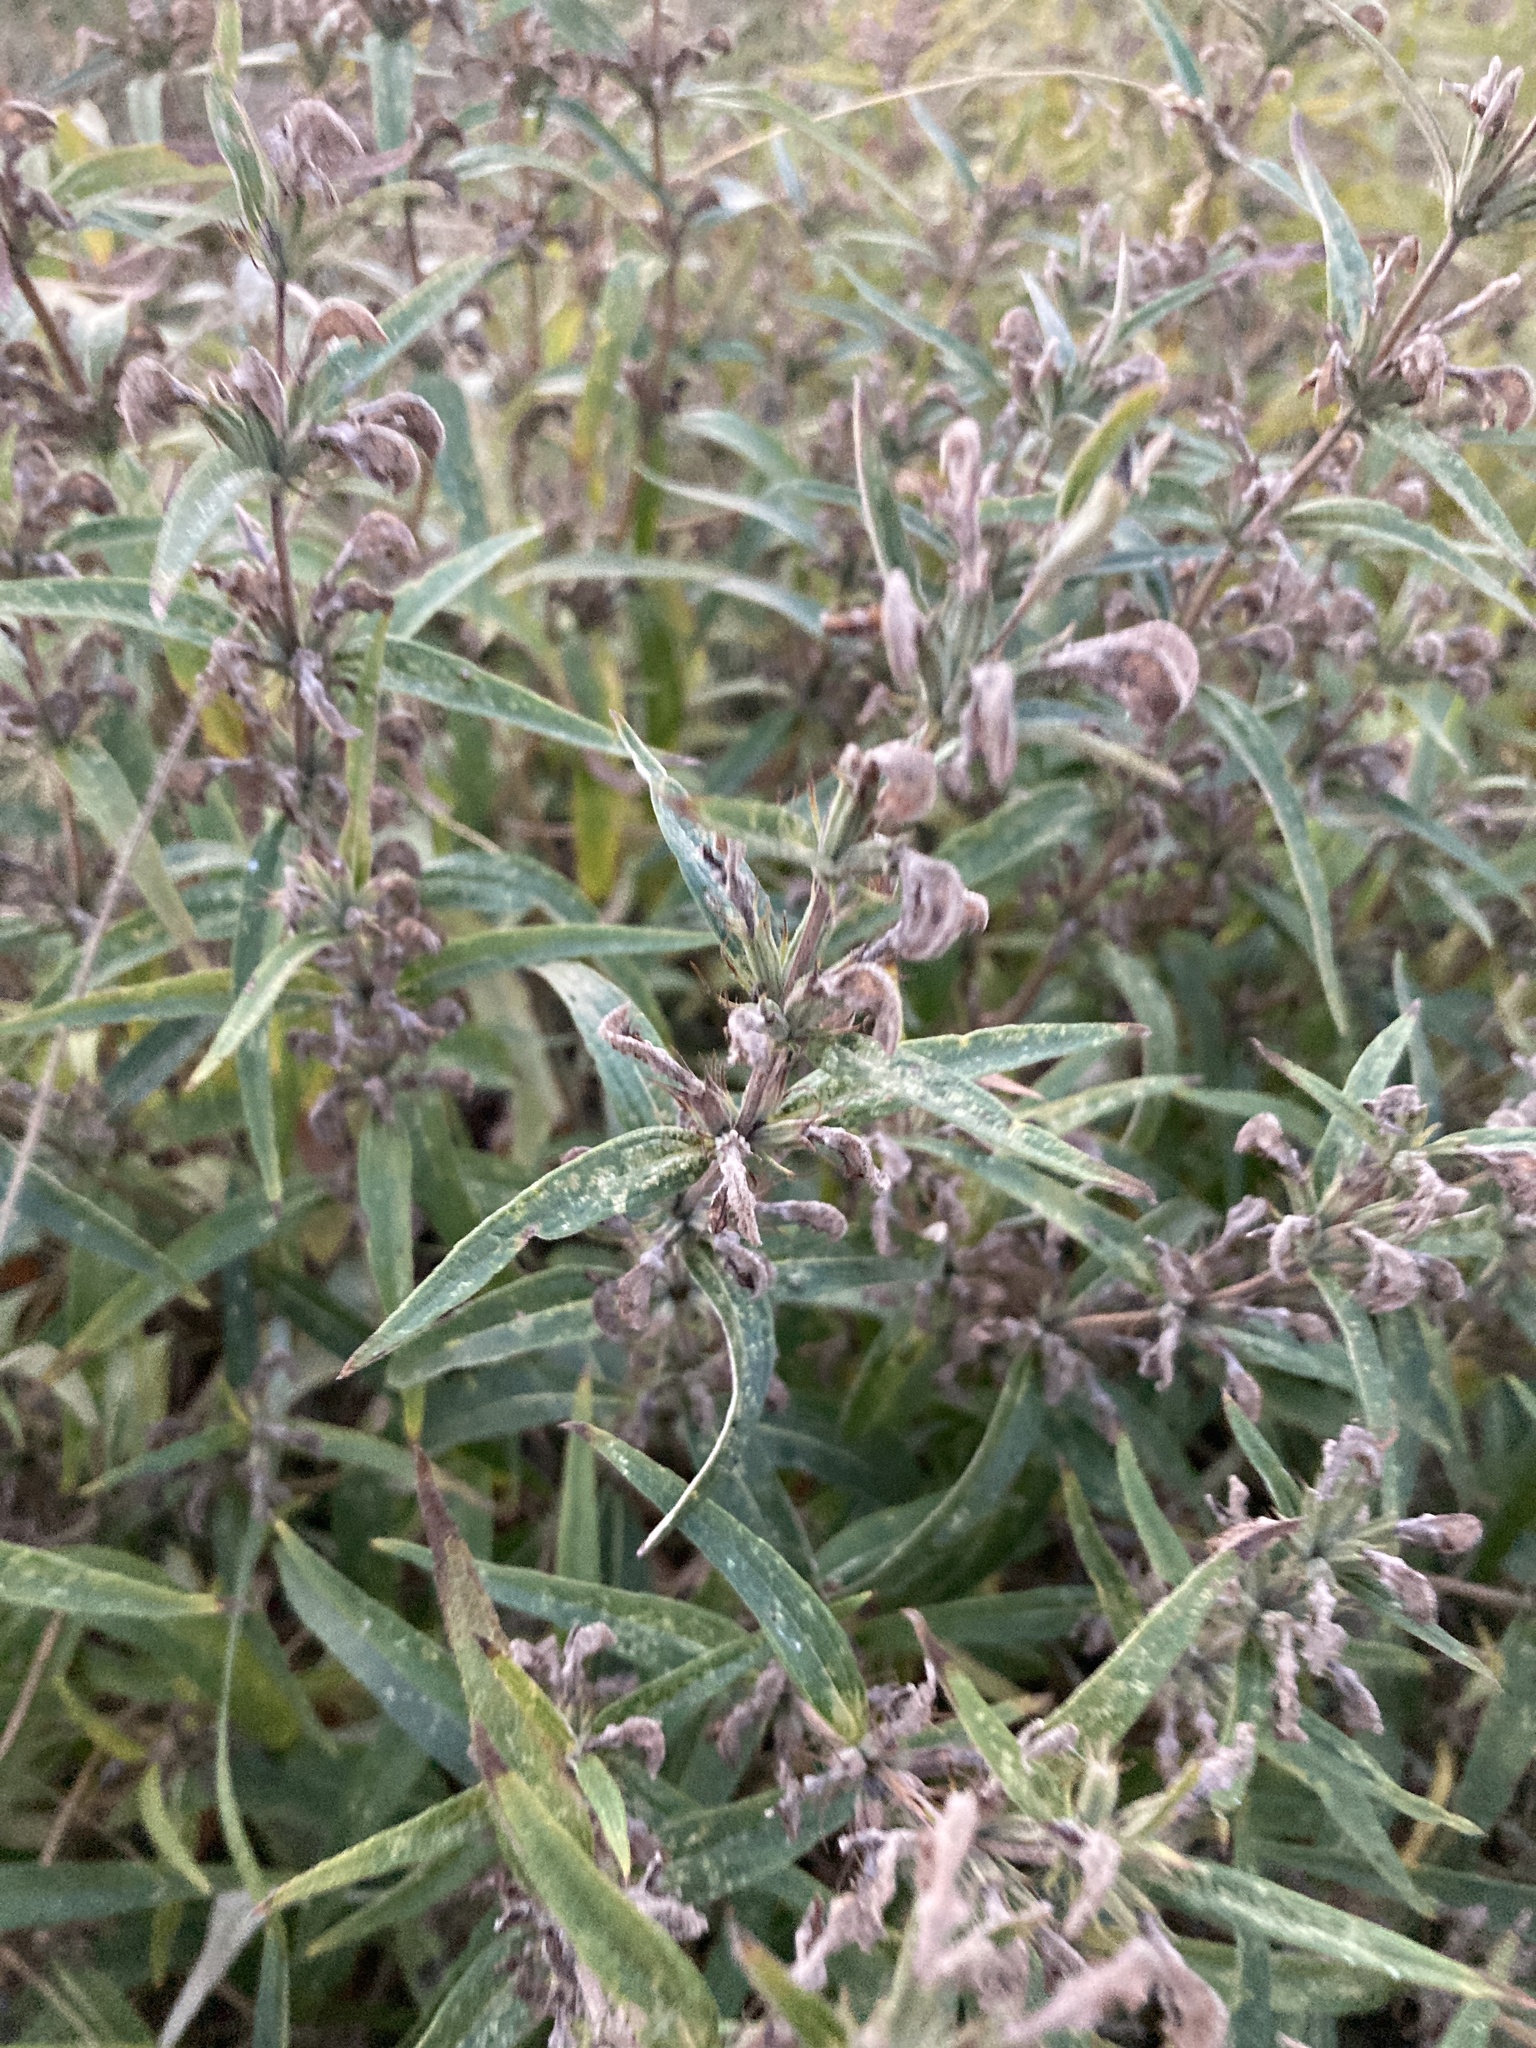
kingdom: Plantae
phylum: Tracheophyta
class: Magnoliopsida
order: Lamiales
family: Lamiaceae
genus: Phlomis
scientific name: Phlomis herba-venti
